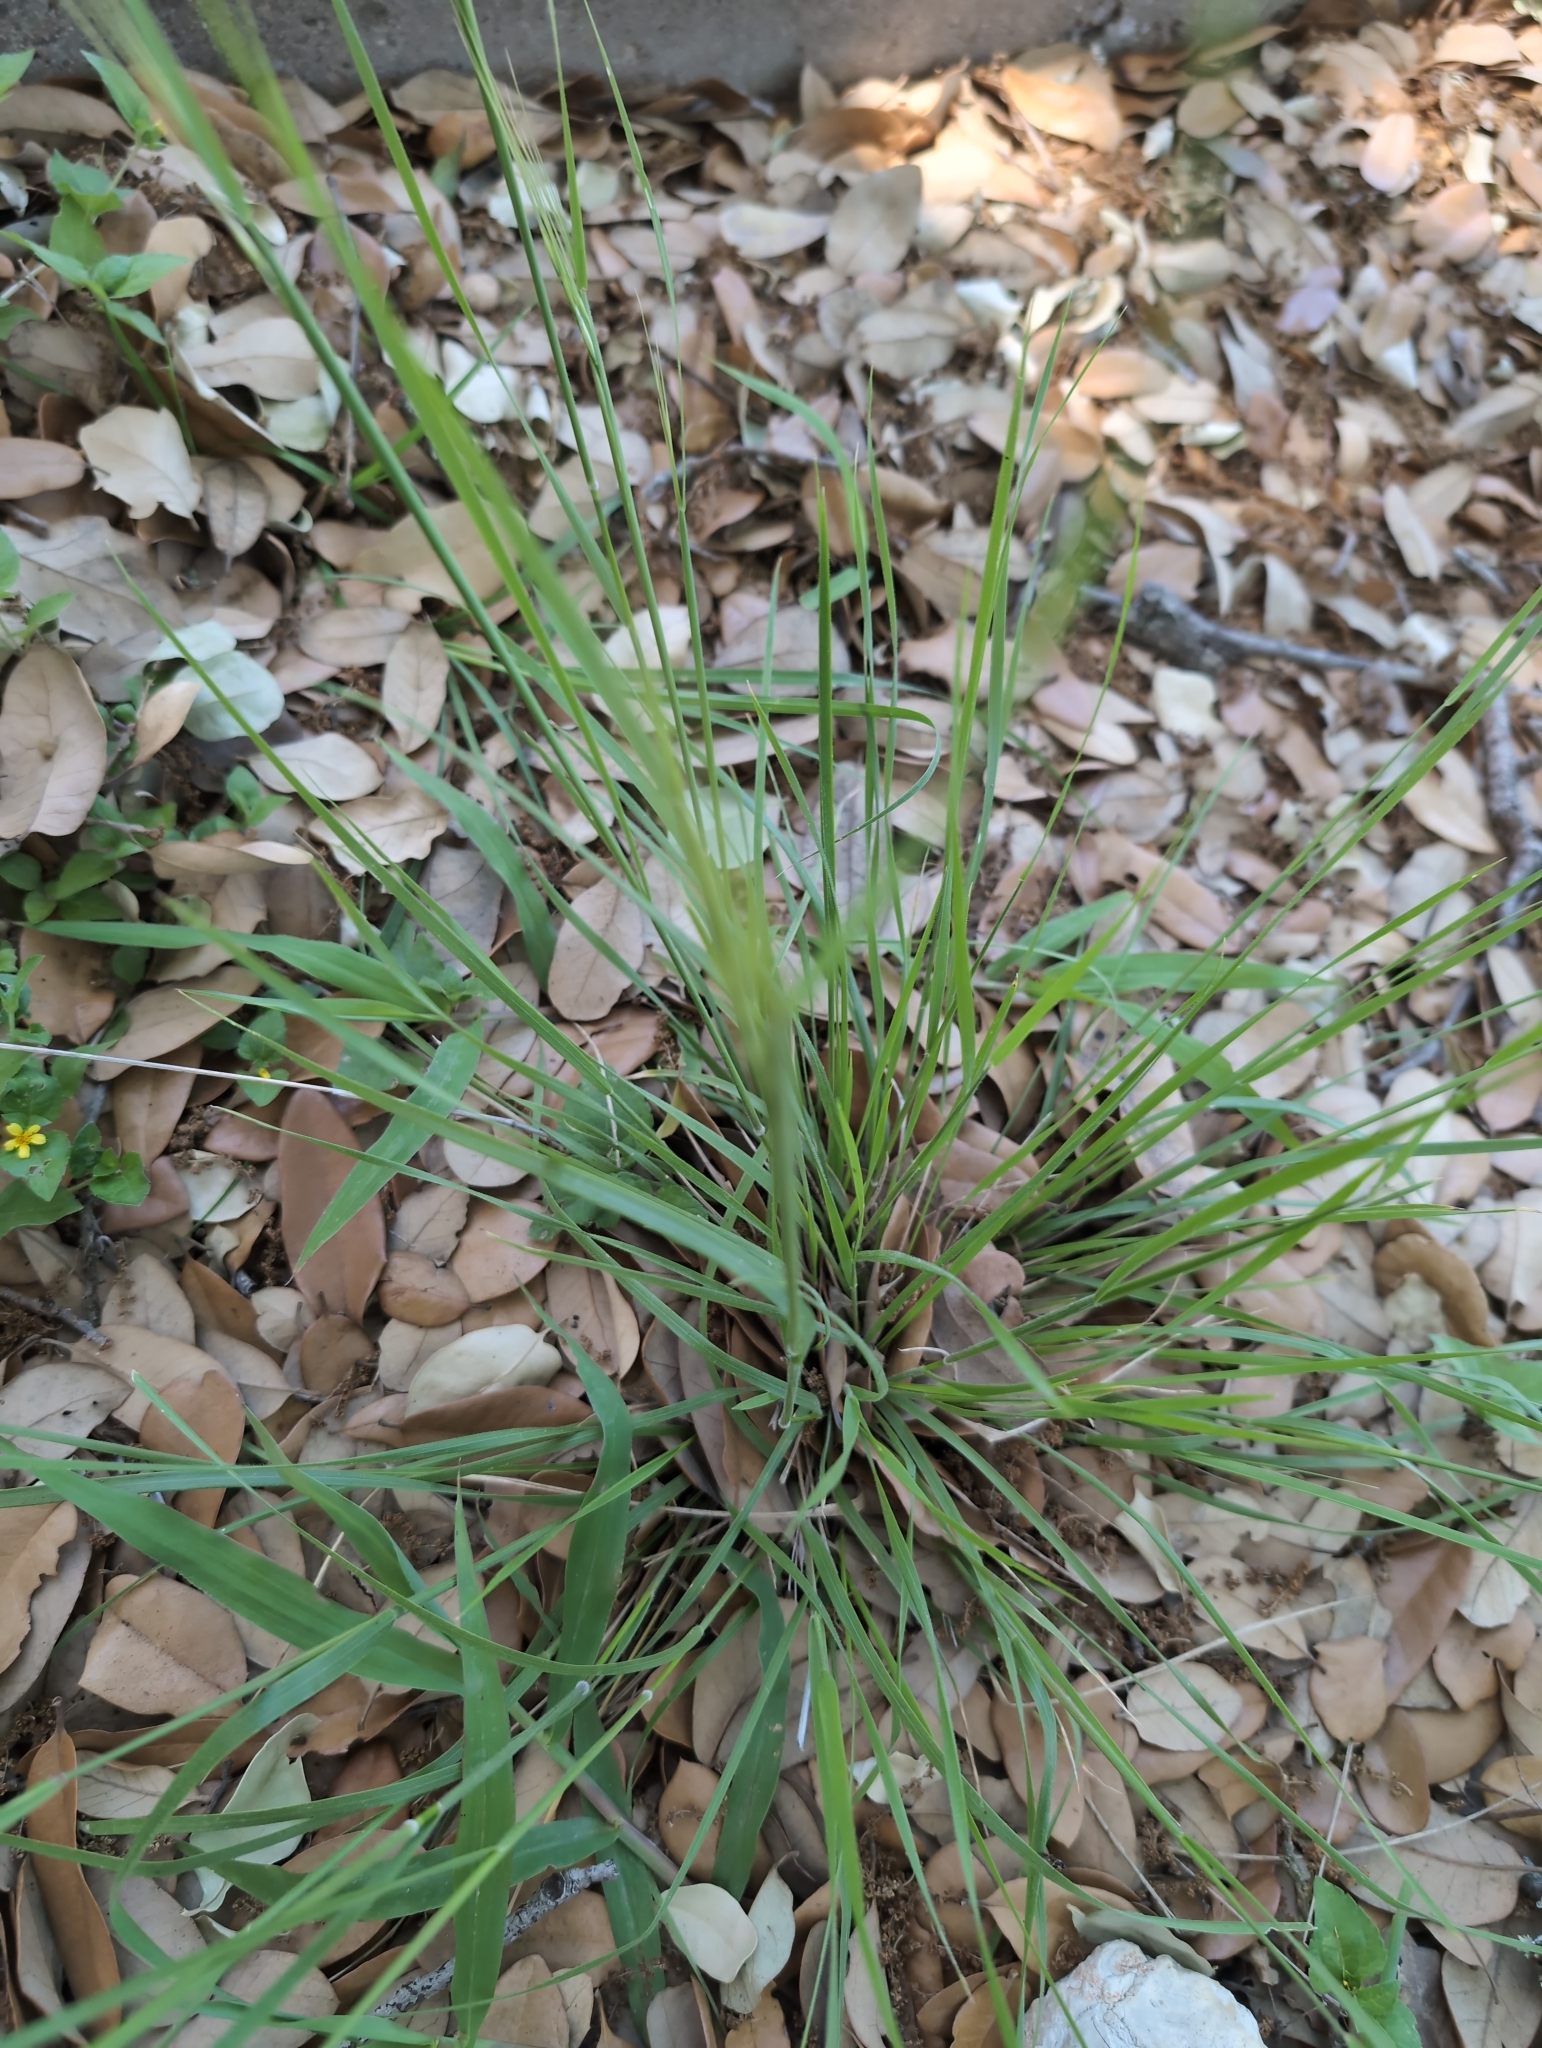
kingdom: Plantae
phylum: Tracheophyta
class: Liliopsida
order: Poales
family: Poaceae
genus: Nassella
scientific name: Nassella leucotricha
